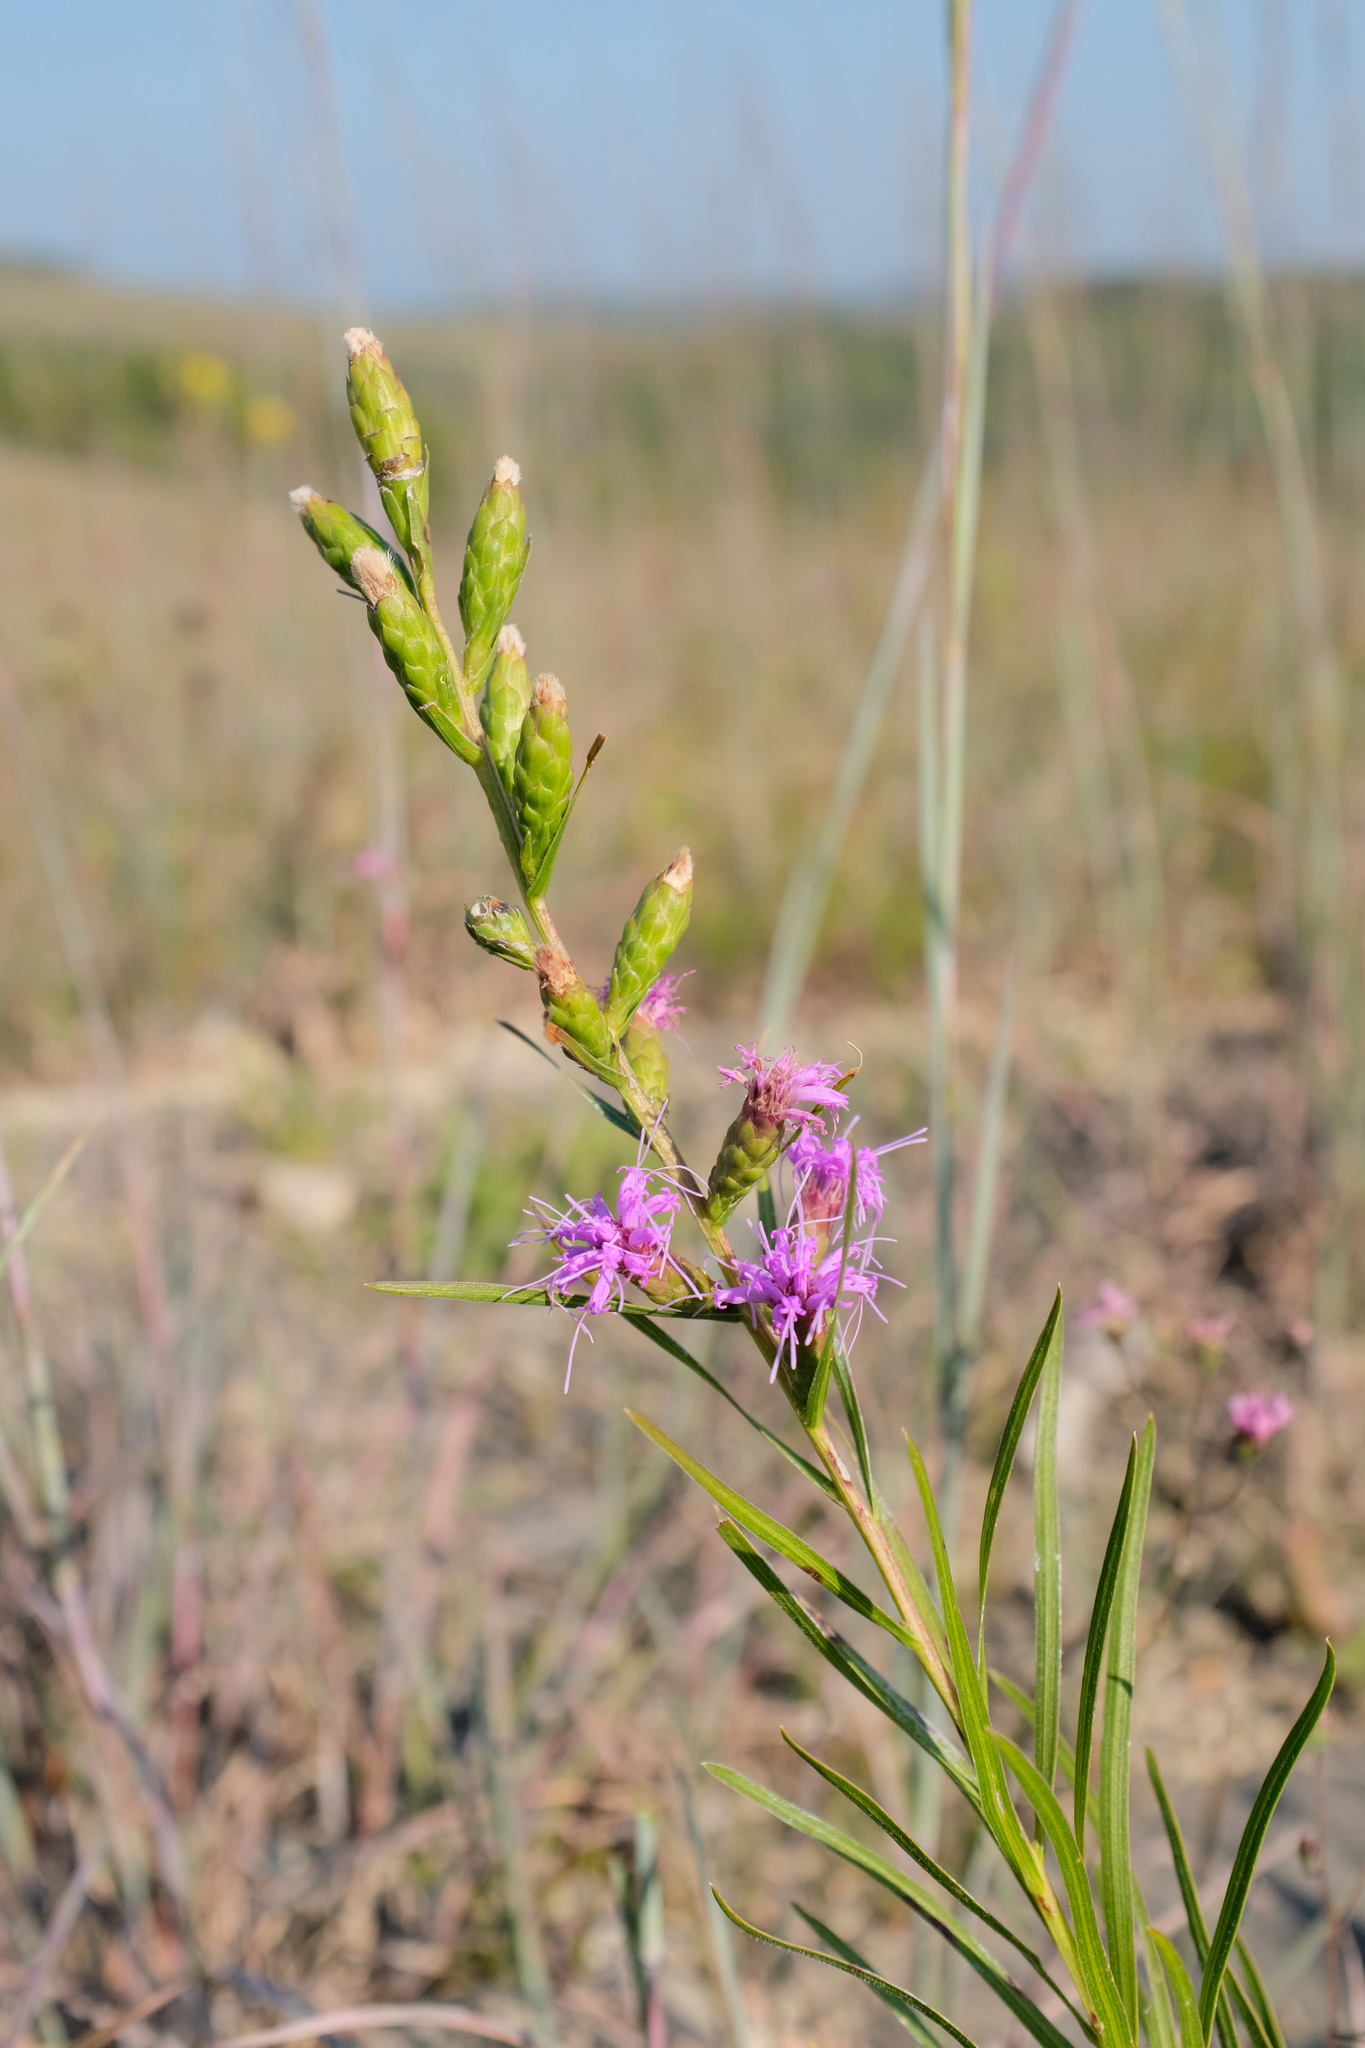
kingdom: Plantae
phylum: Tracheophyta
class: Magnoliopsida
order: Asterales
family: Asteraceae
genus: Liatris
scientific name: Liatris cylindracea
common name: Few-head blazingstar
